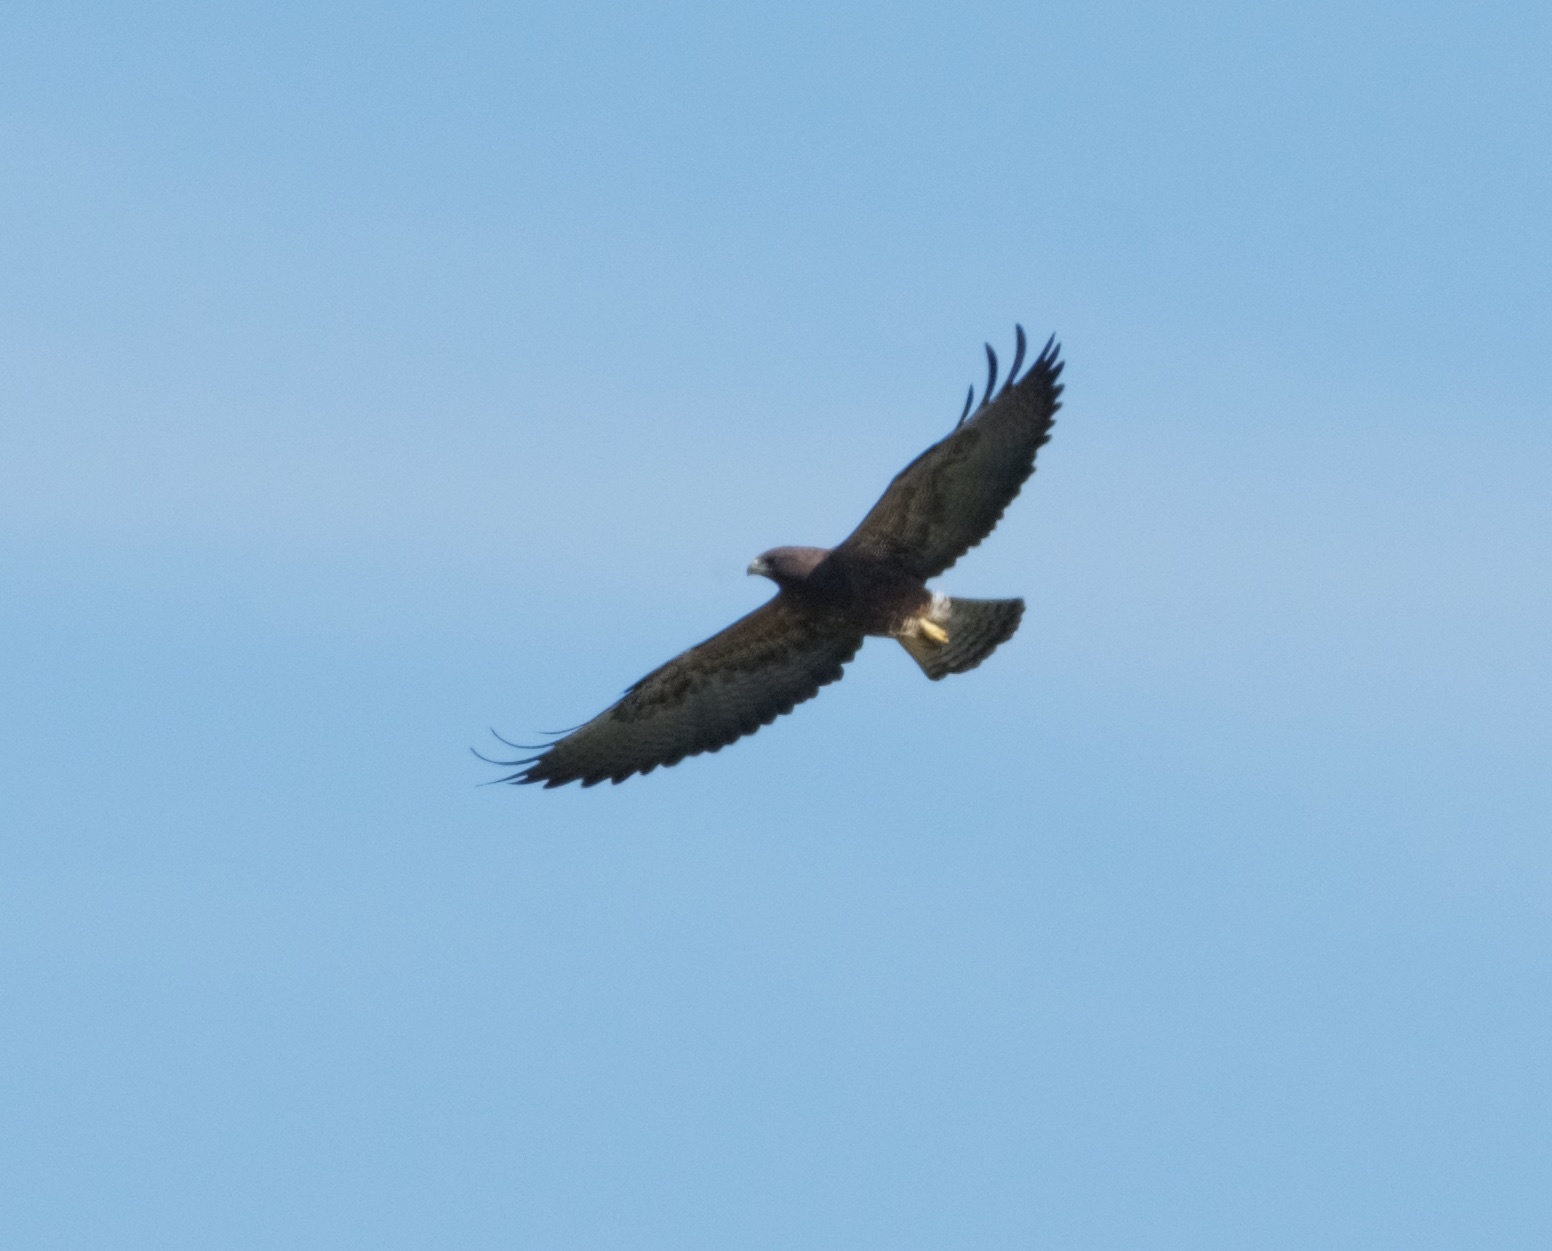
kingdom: Animalia
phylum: Chordata
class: Aves
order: Accipitriformes
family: Accipitridae
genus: Buteo
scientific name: Buteo swainsoni
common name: Swainson's hawk
